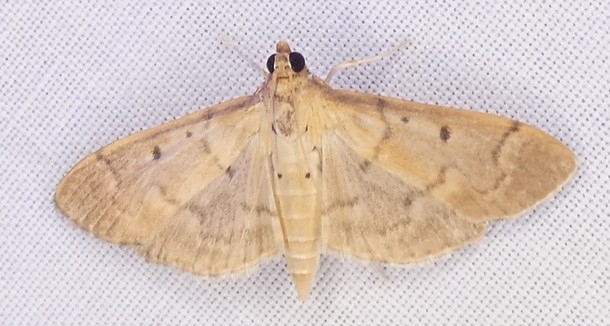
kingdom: Animalia
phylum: Arthropoda
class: Insecta
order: Lepidoptera
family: Crambidae
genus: Herpetogramma
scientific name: Herpetogramma bipunctalis
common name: Southern beet webworm
